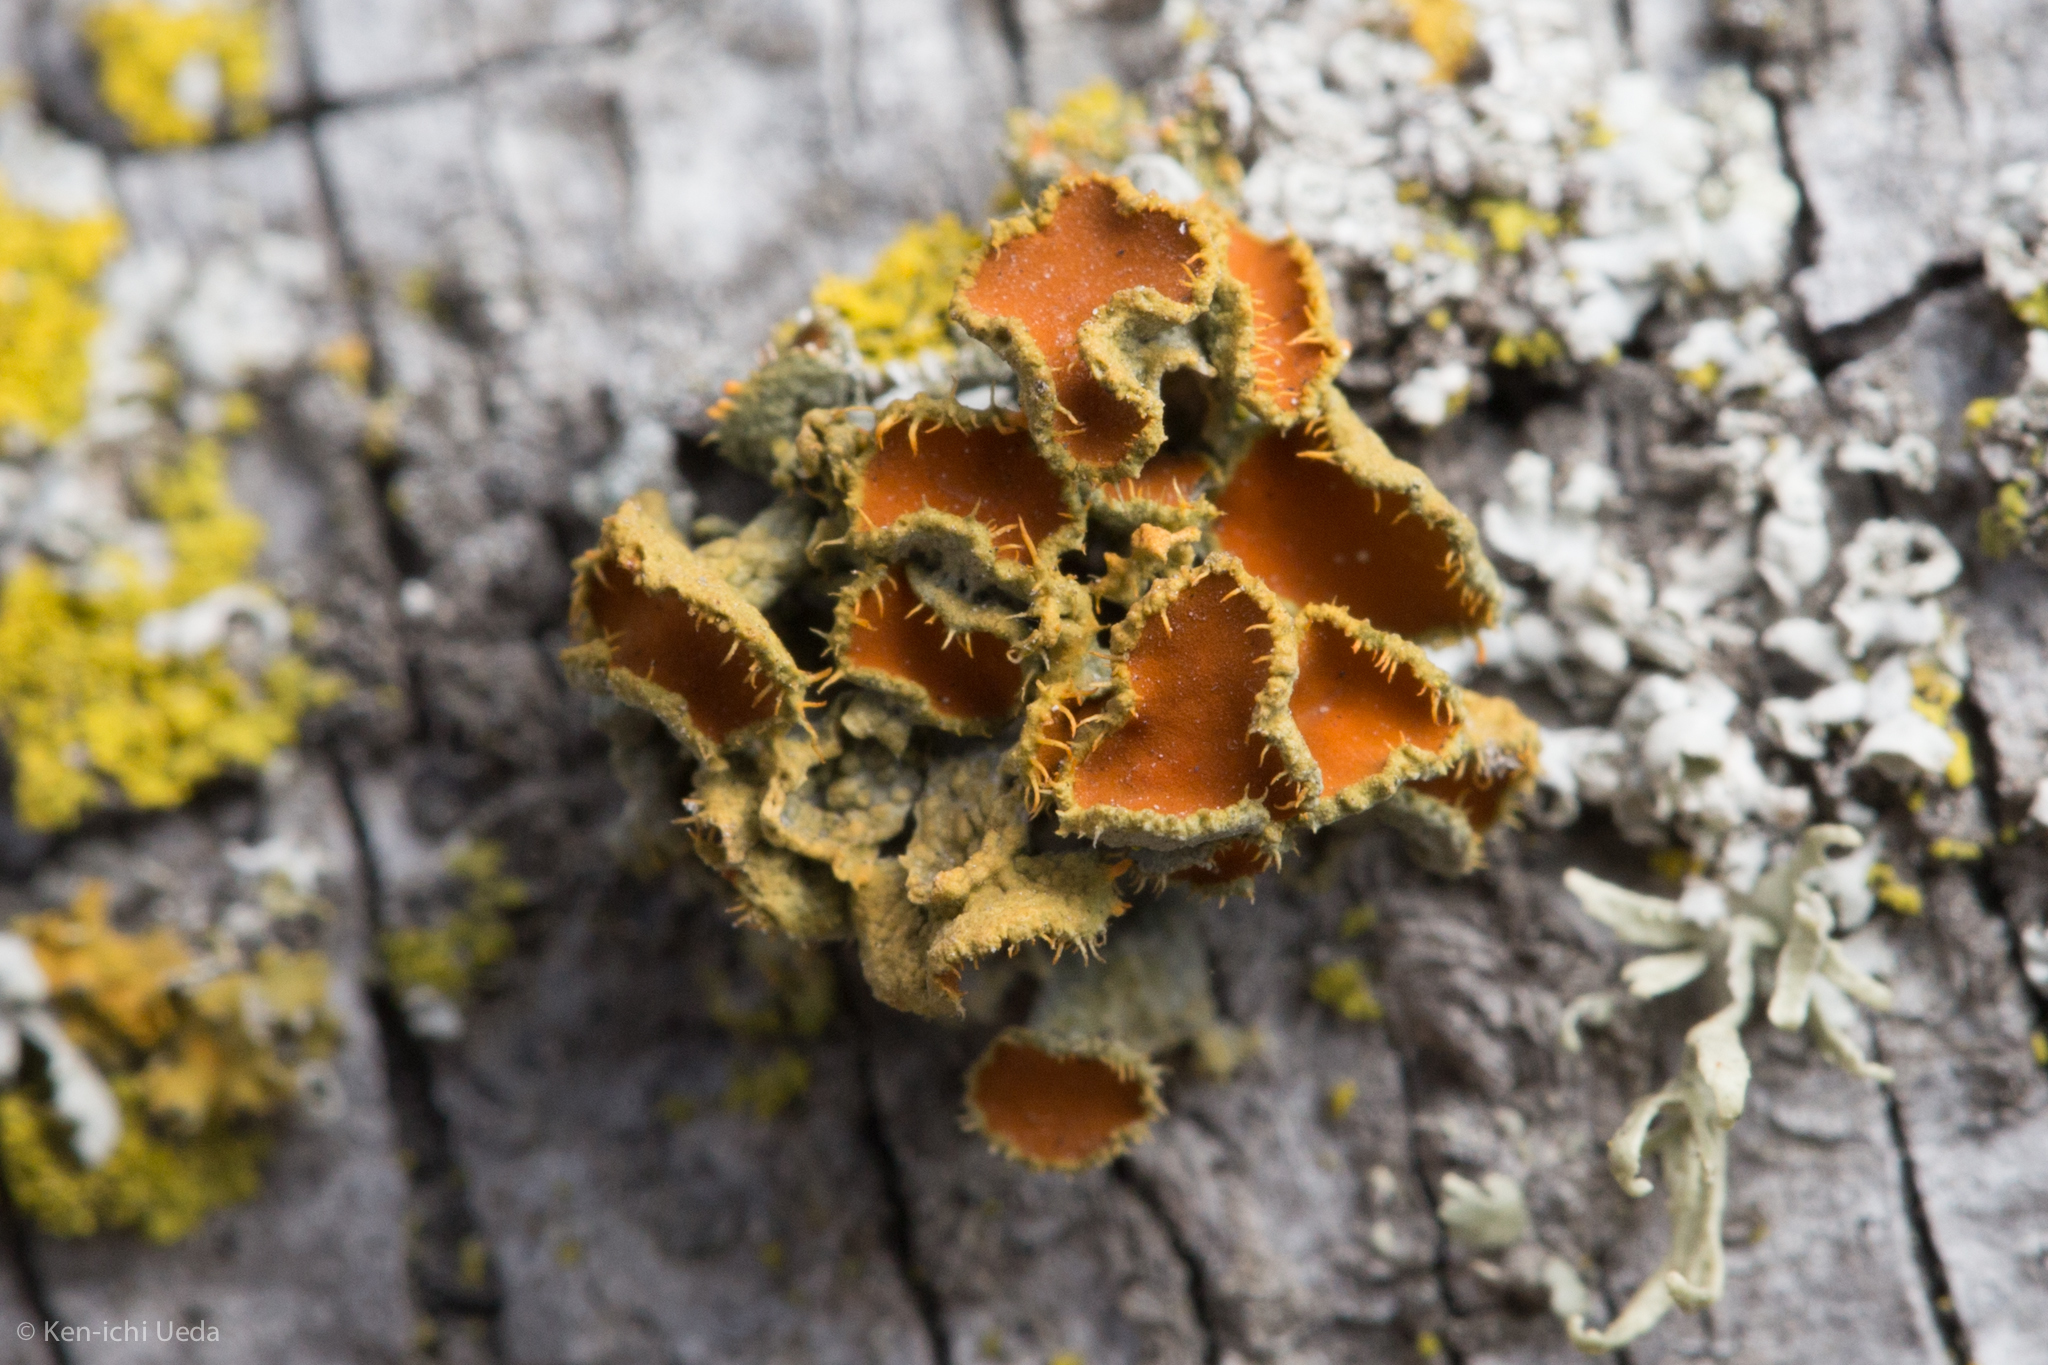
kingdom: Fungi
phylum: Ascomycota
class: Lecanoromycetes
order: Teloschistales
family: Teloschistaceae
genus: Niorma
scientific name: Niorma chrysophthalma
